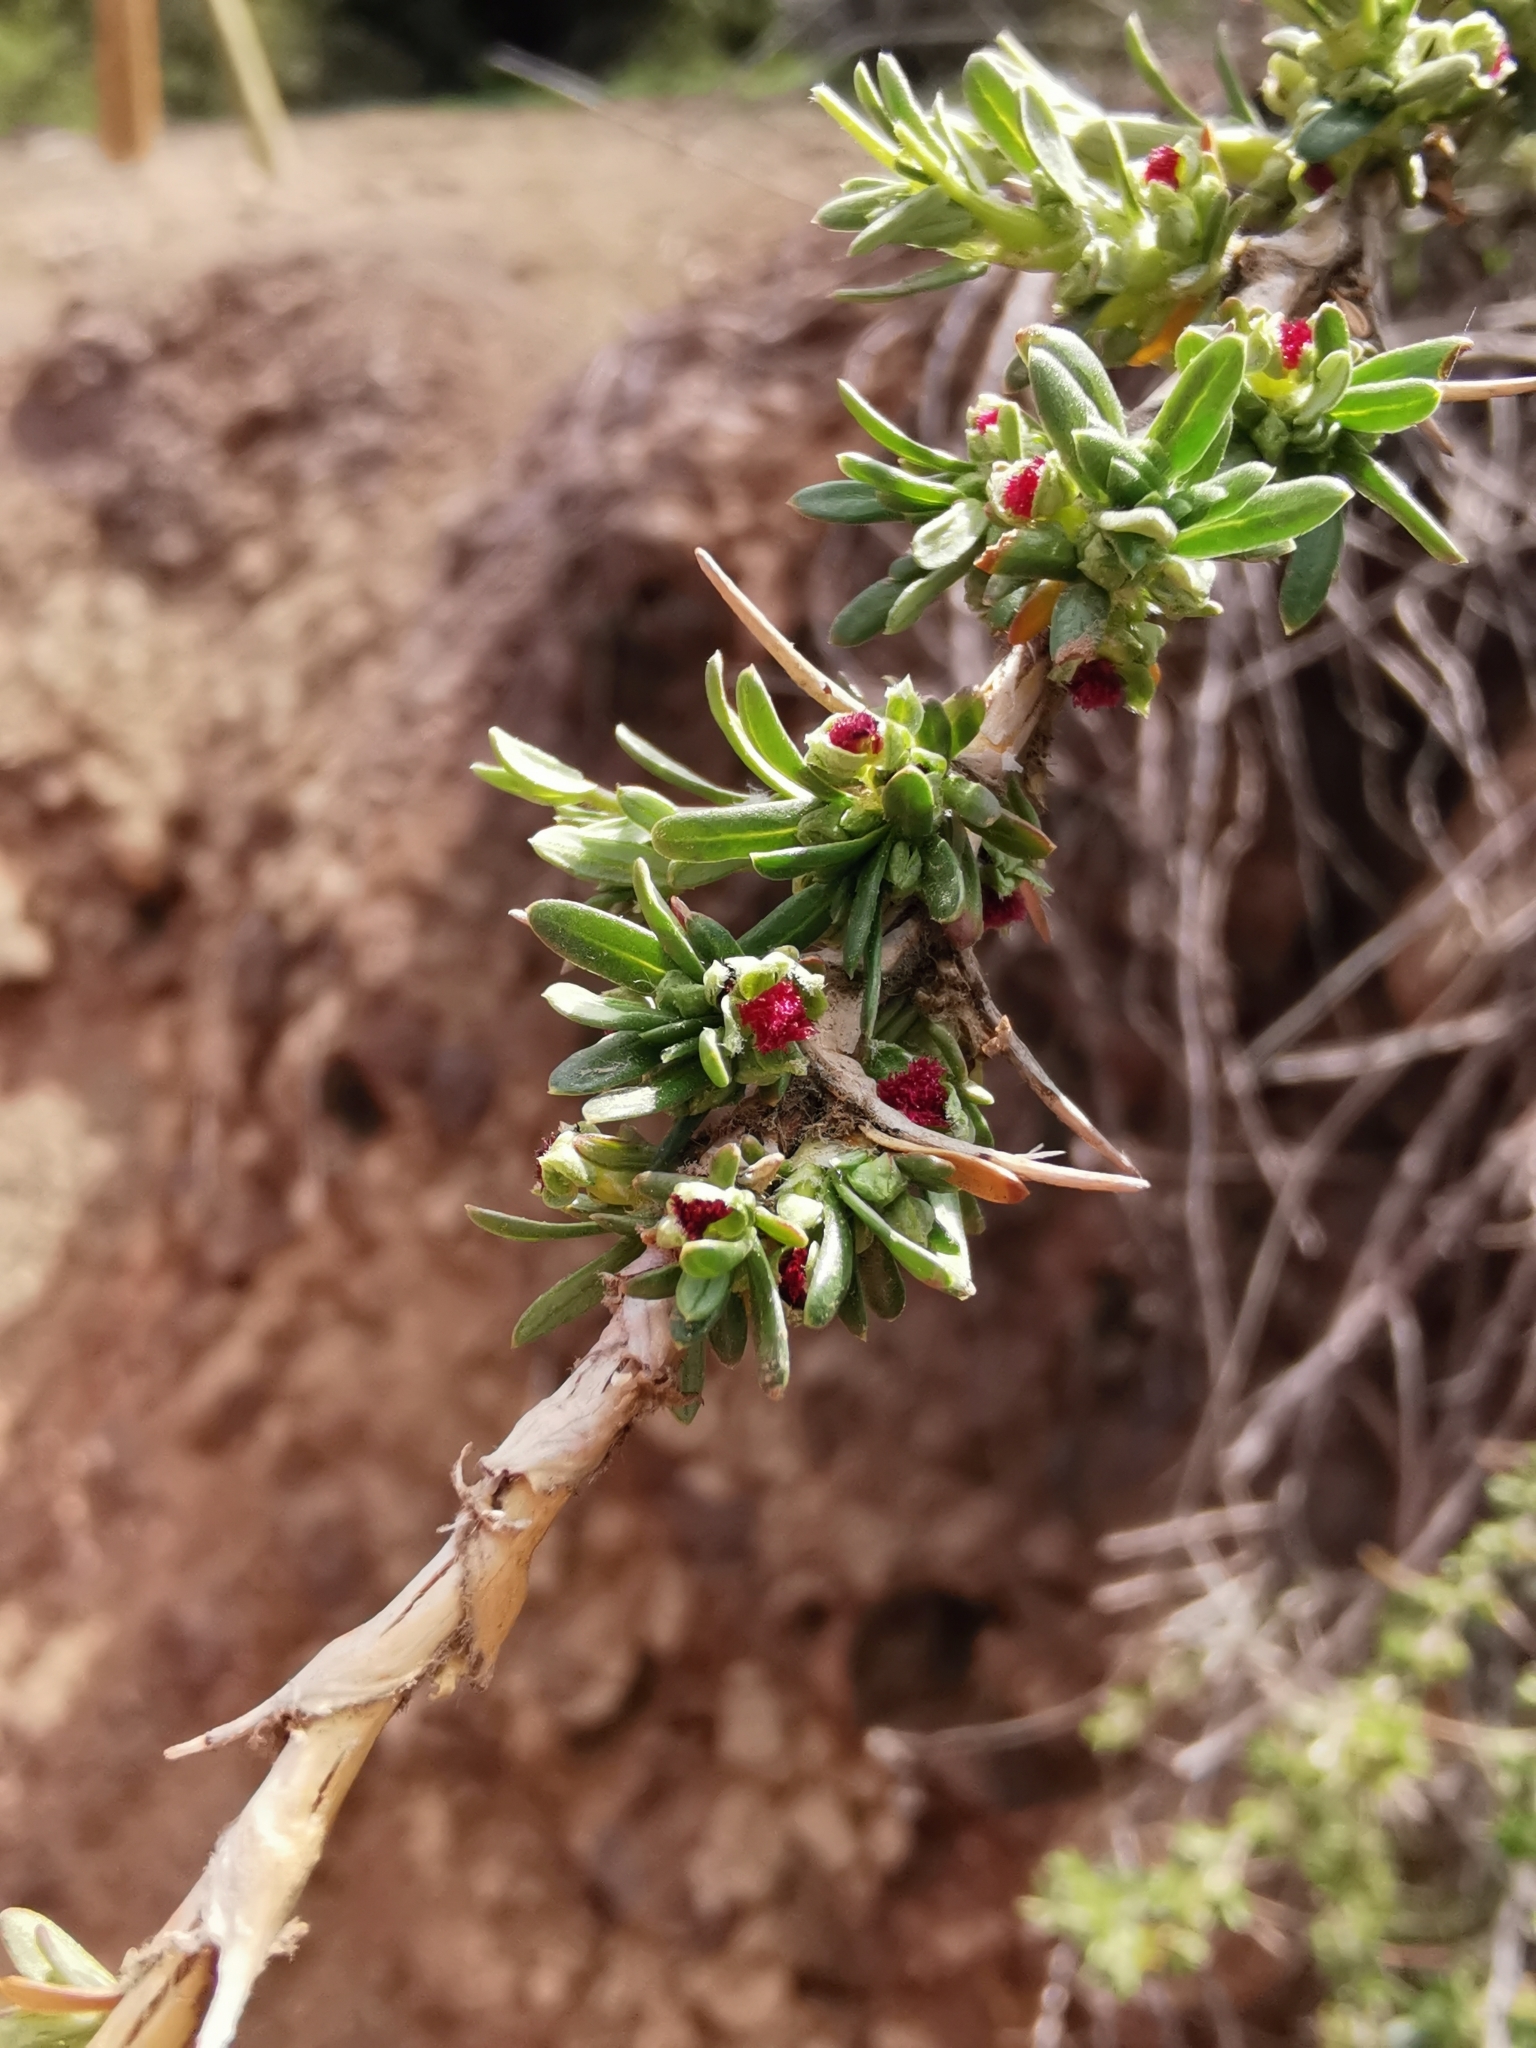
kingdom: Plantae
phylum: Tracheophyta
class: Magnoliopsida
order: Rosales
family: Rosaceae
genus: Margyricarpus
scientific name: Margyricarpus alatus
